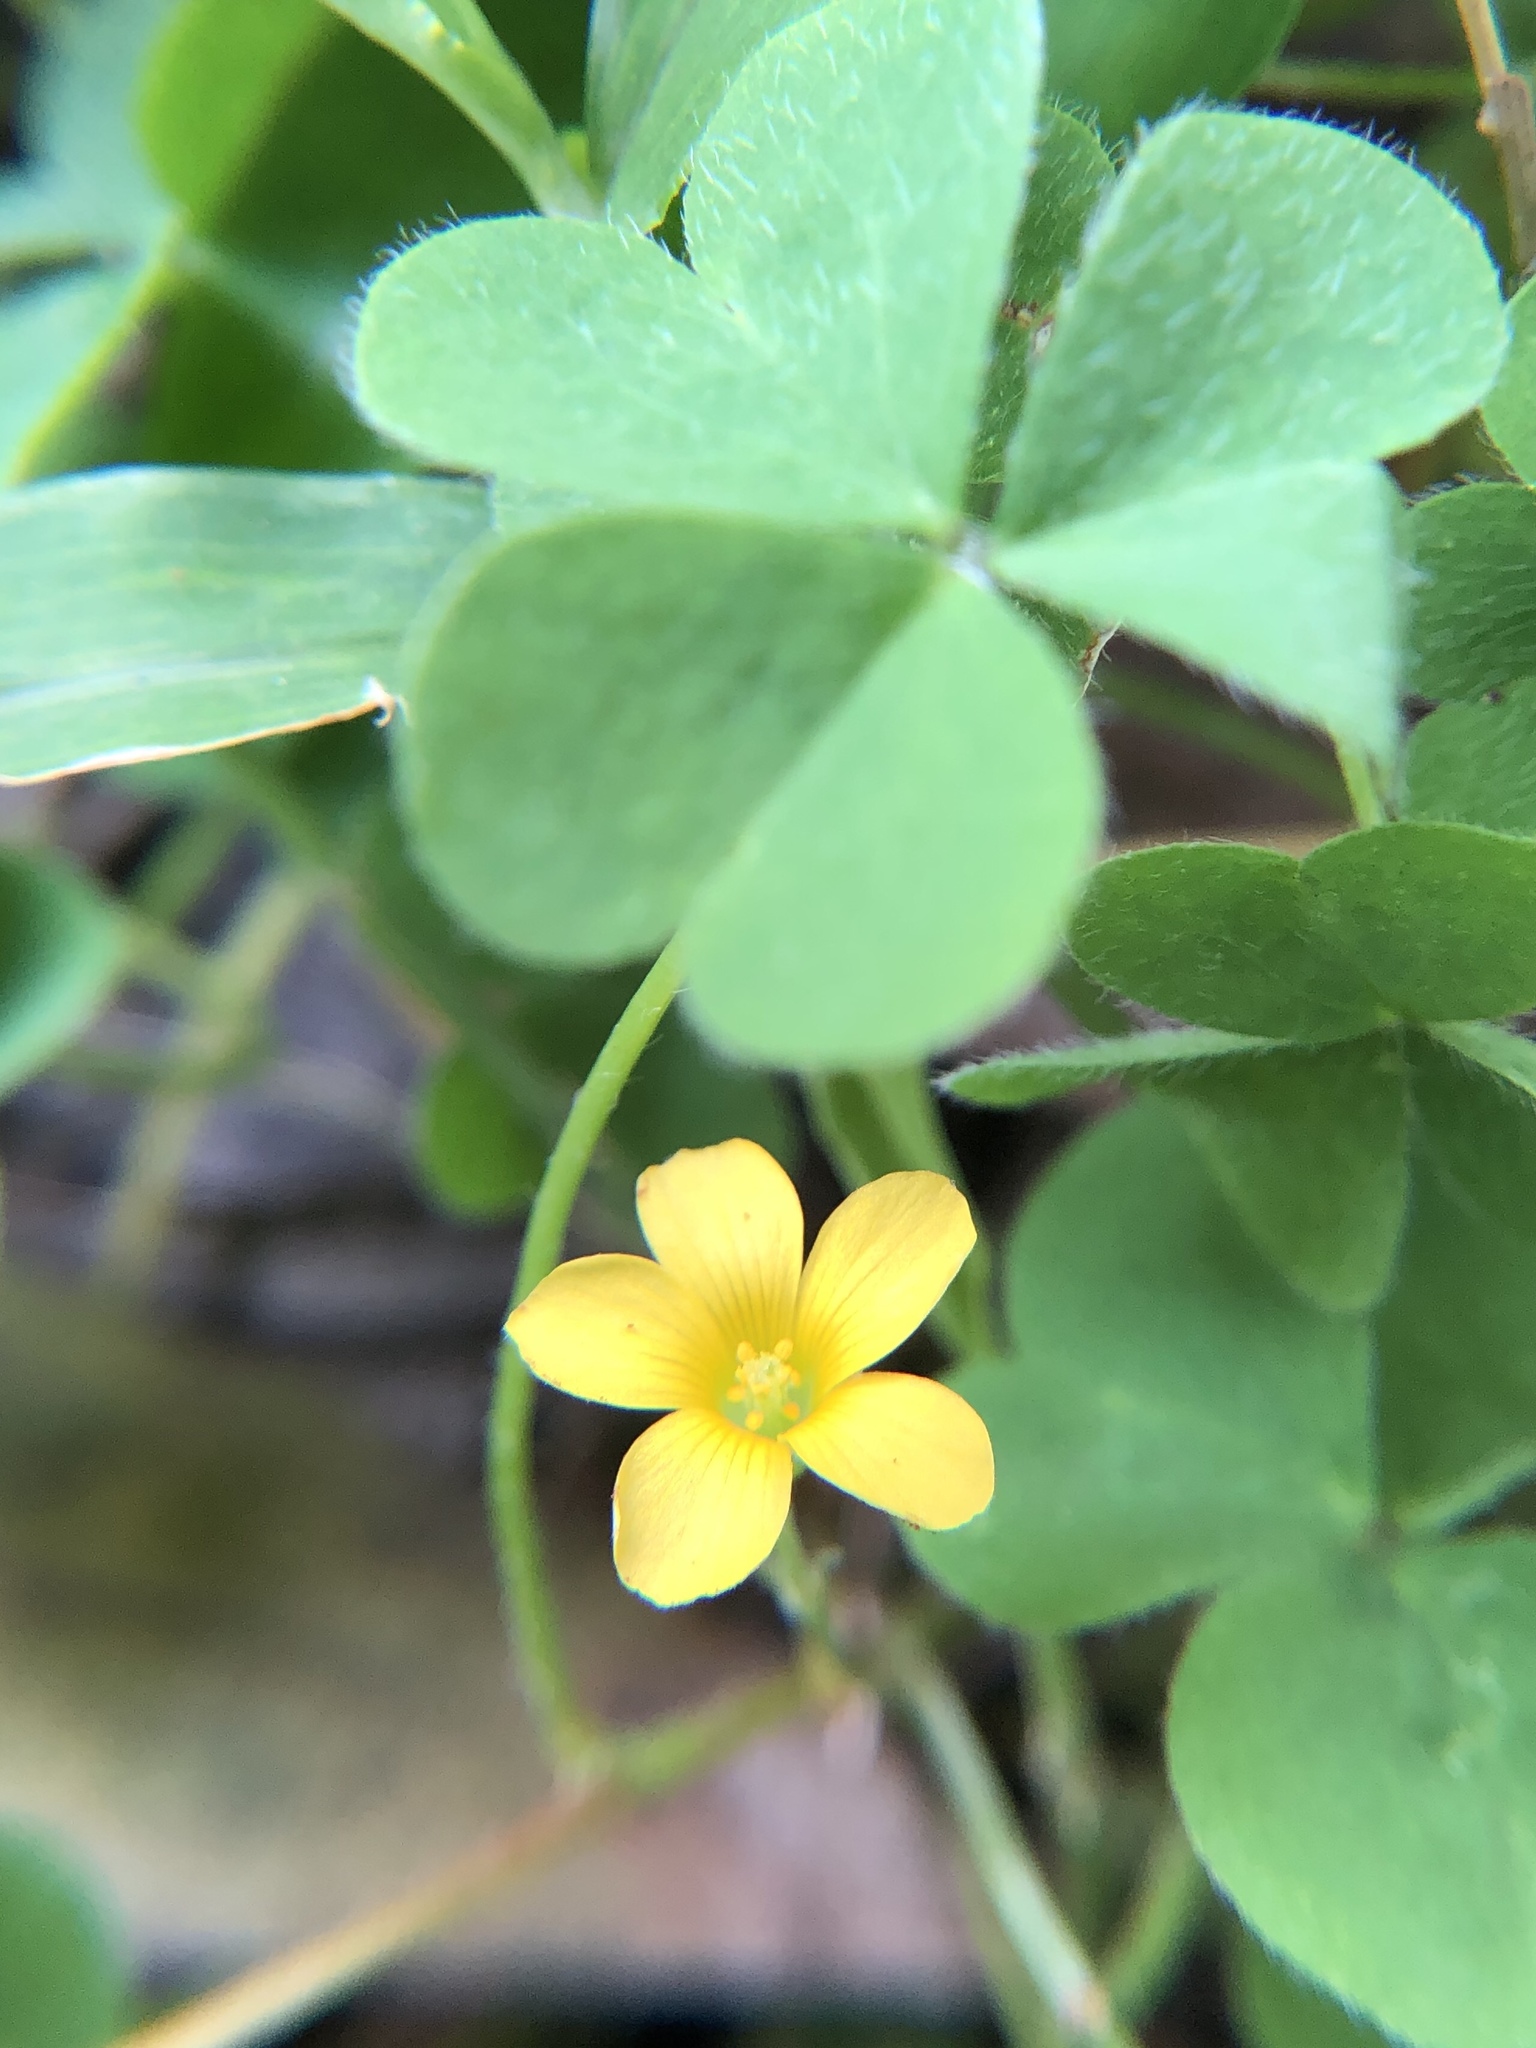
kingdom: Plantae
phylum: Tracheophyta
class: Magnoliopsida
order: Oxalidales
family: Oxalidaceae
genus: Oxalis
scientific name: Oxalis corniculata
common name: Procumbent yellow-sorrel
